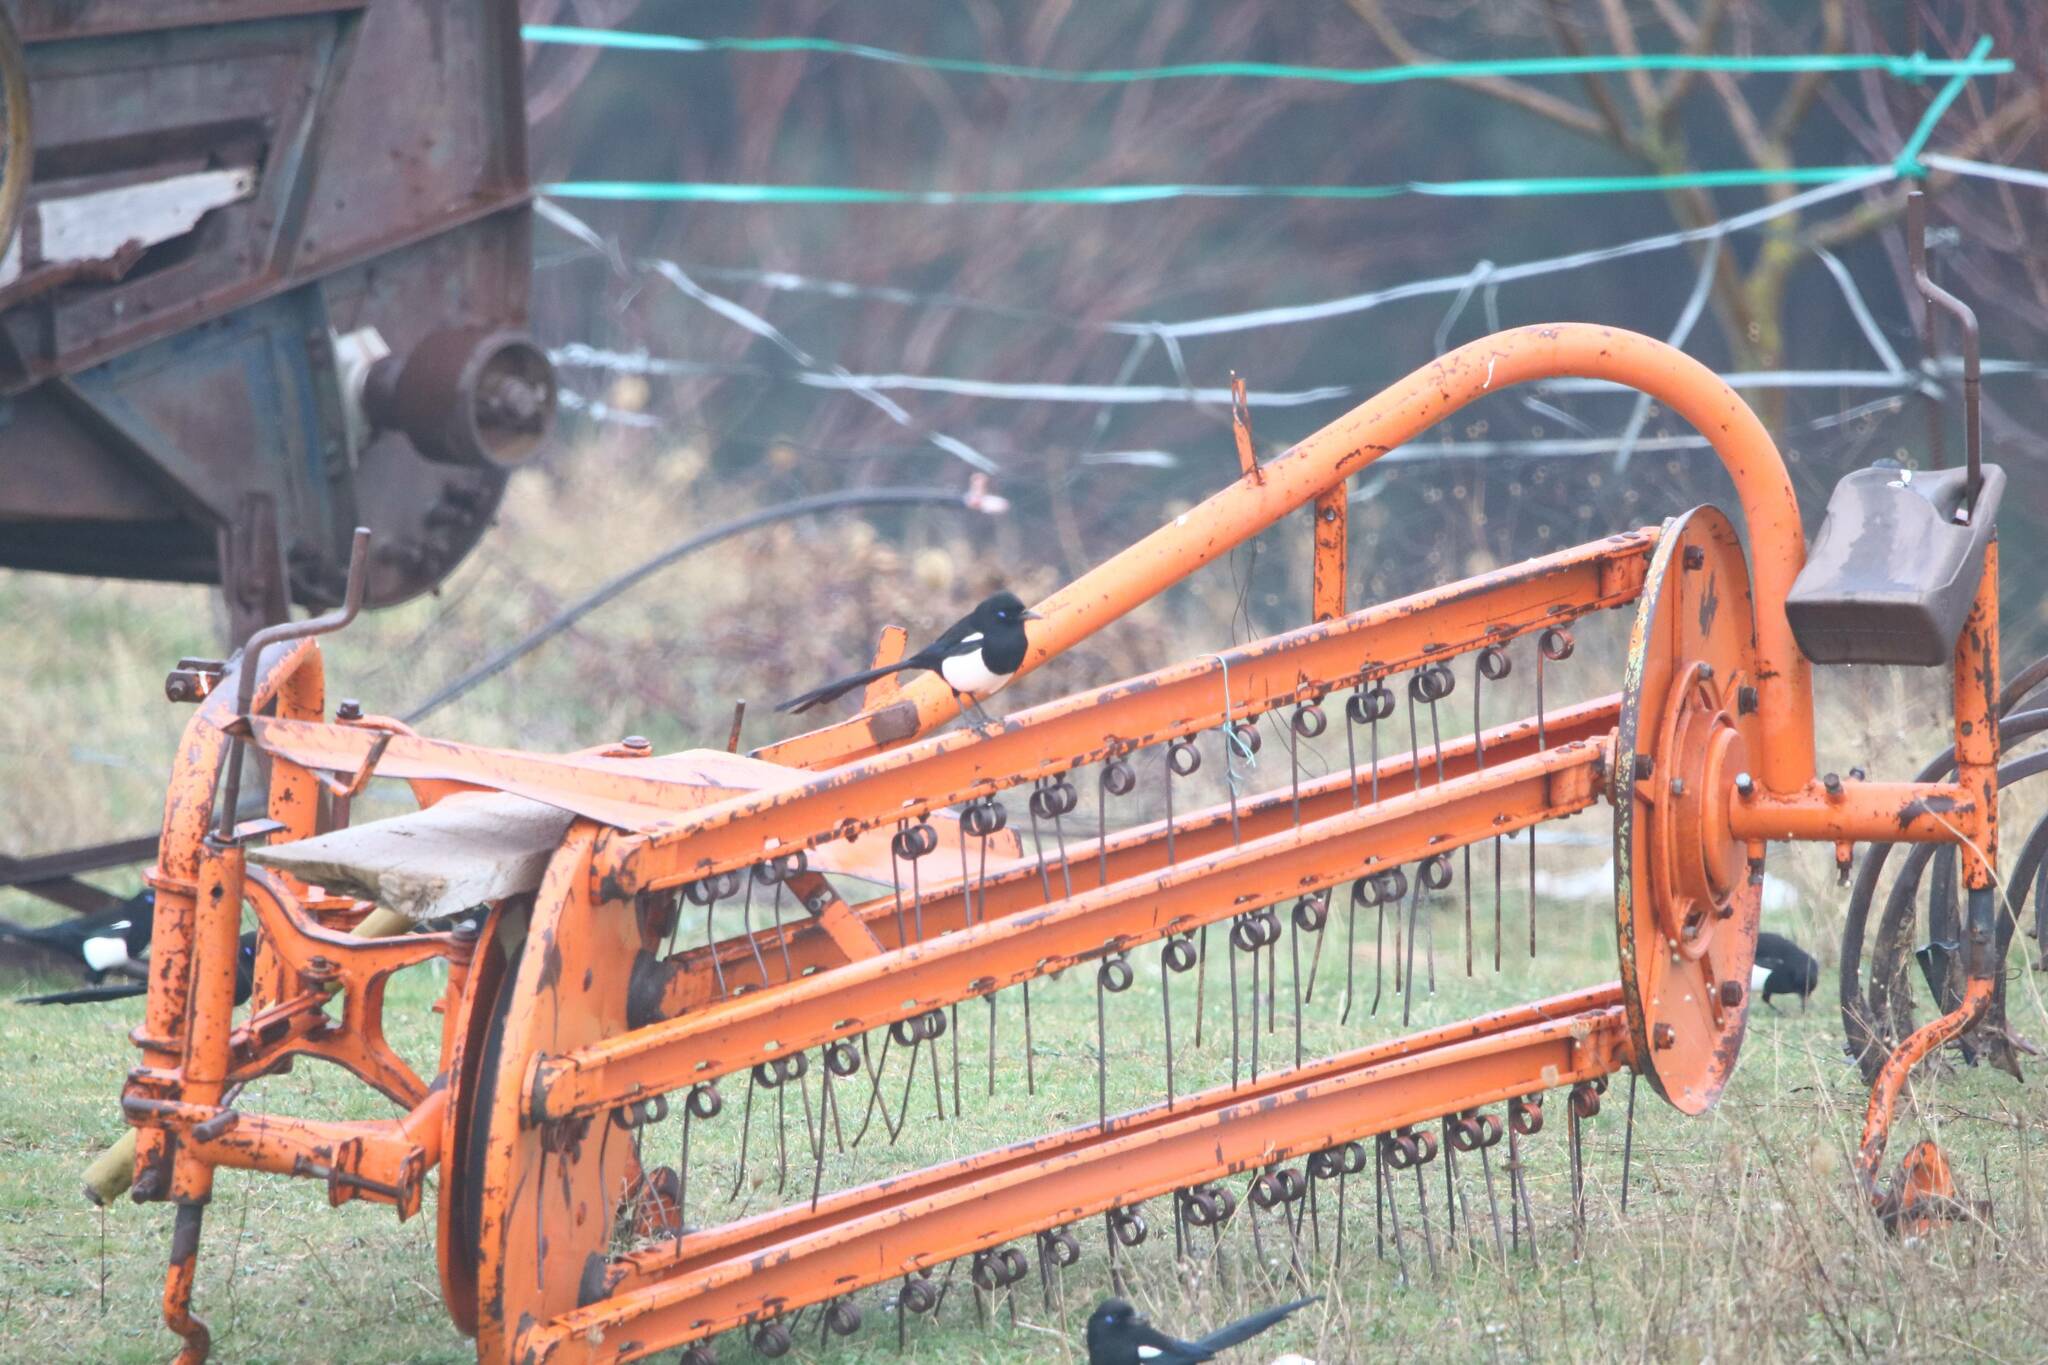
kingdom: Animalia
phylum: Chordata
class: Aves
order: Passeriformes
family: Corvidae
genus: Pica
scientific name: Pica mauritanica
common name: Maghreb magpie
